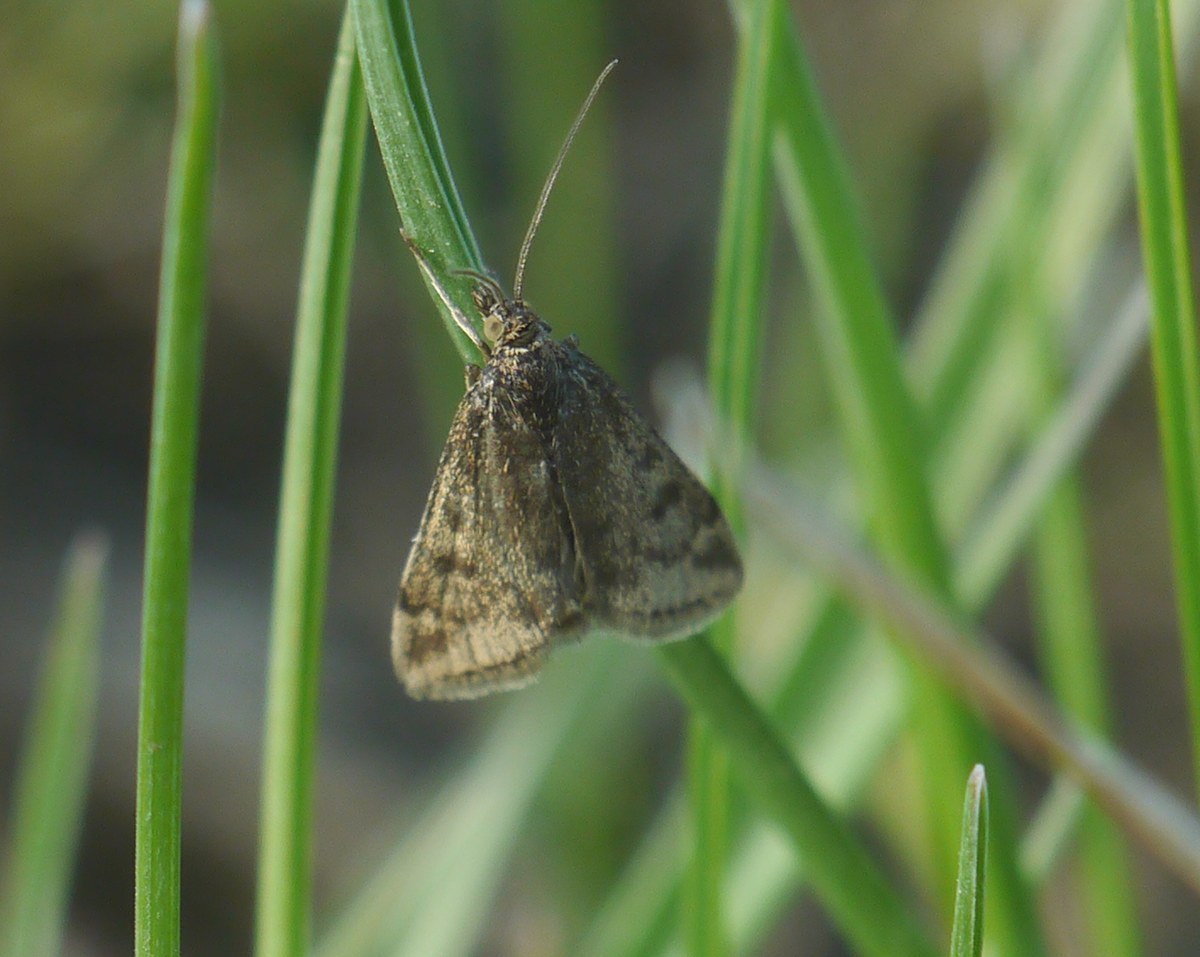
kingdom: Animalia
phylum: Arthropoda
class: Insecta
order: Lepidoptera
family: Crambidae
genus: Pyrausta
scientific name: Pyrausta despicata
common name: Straw-barred pearl
